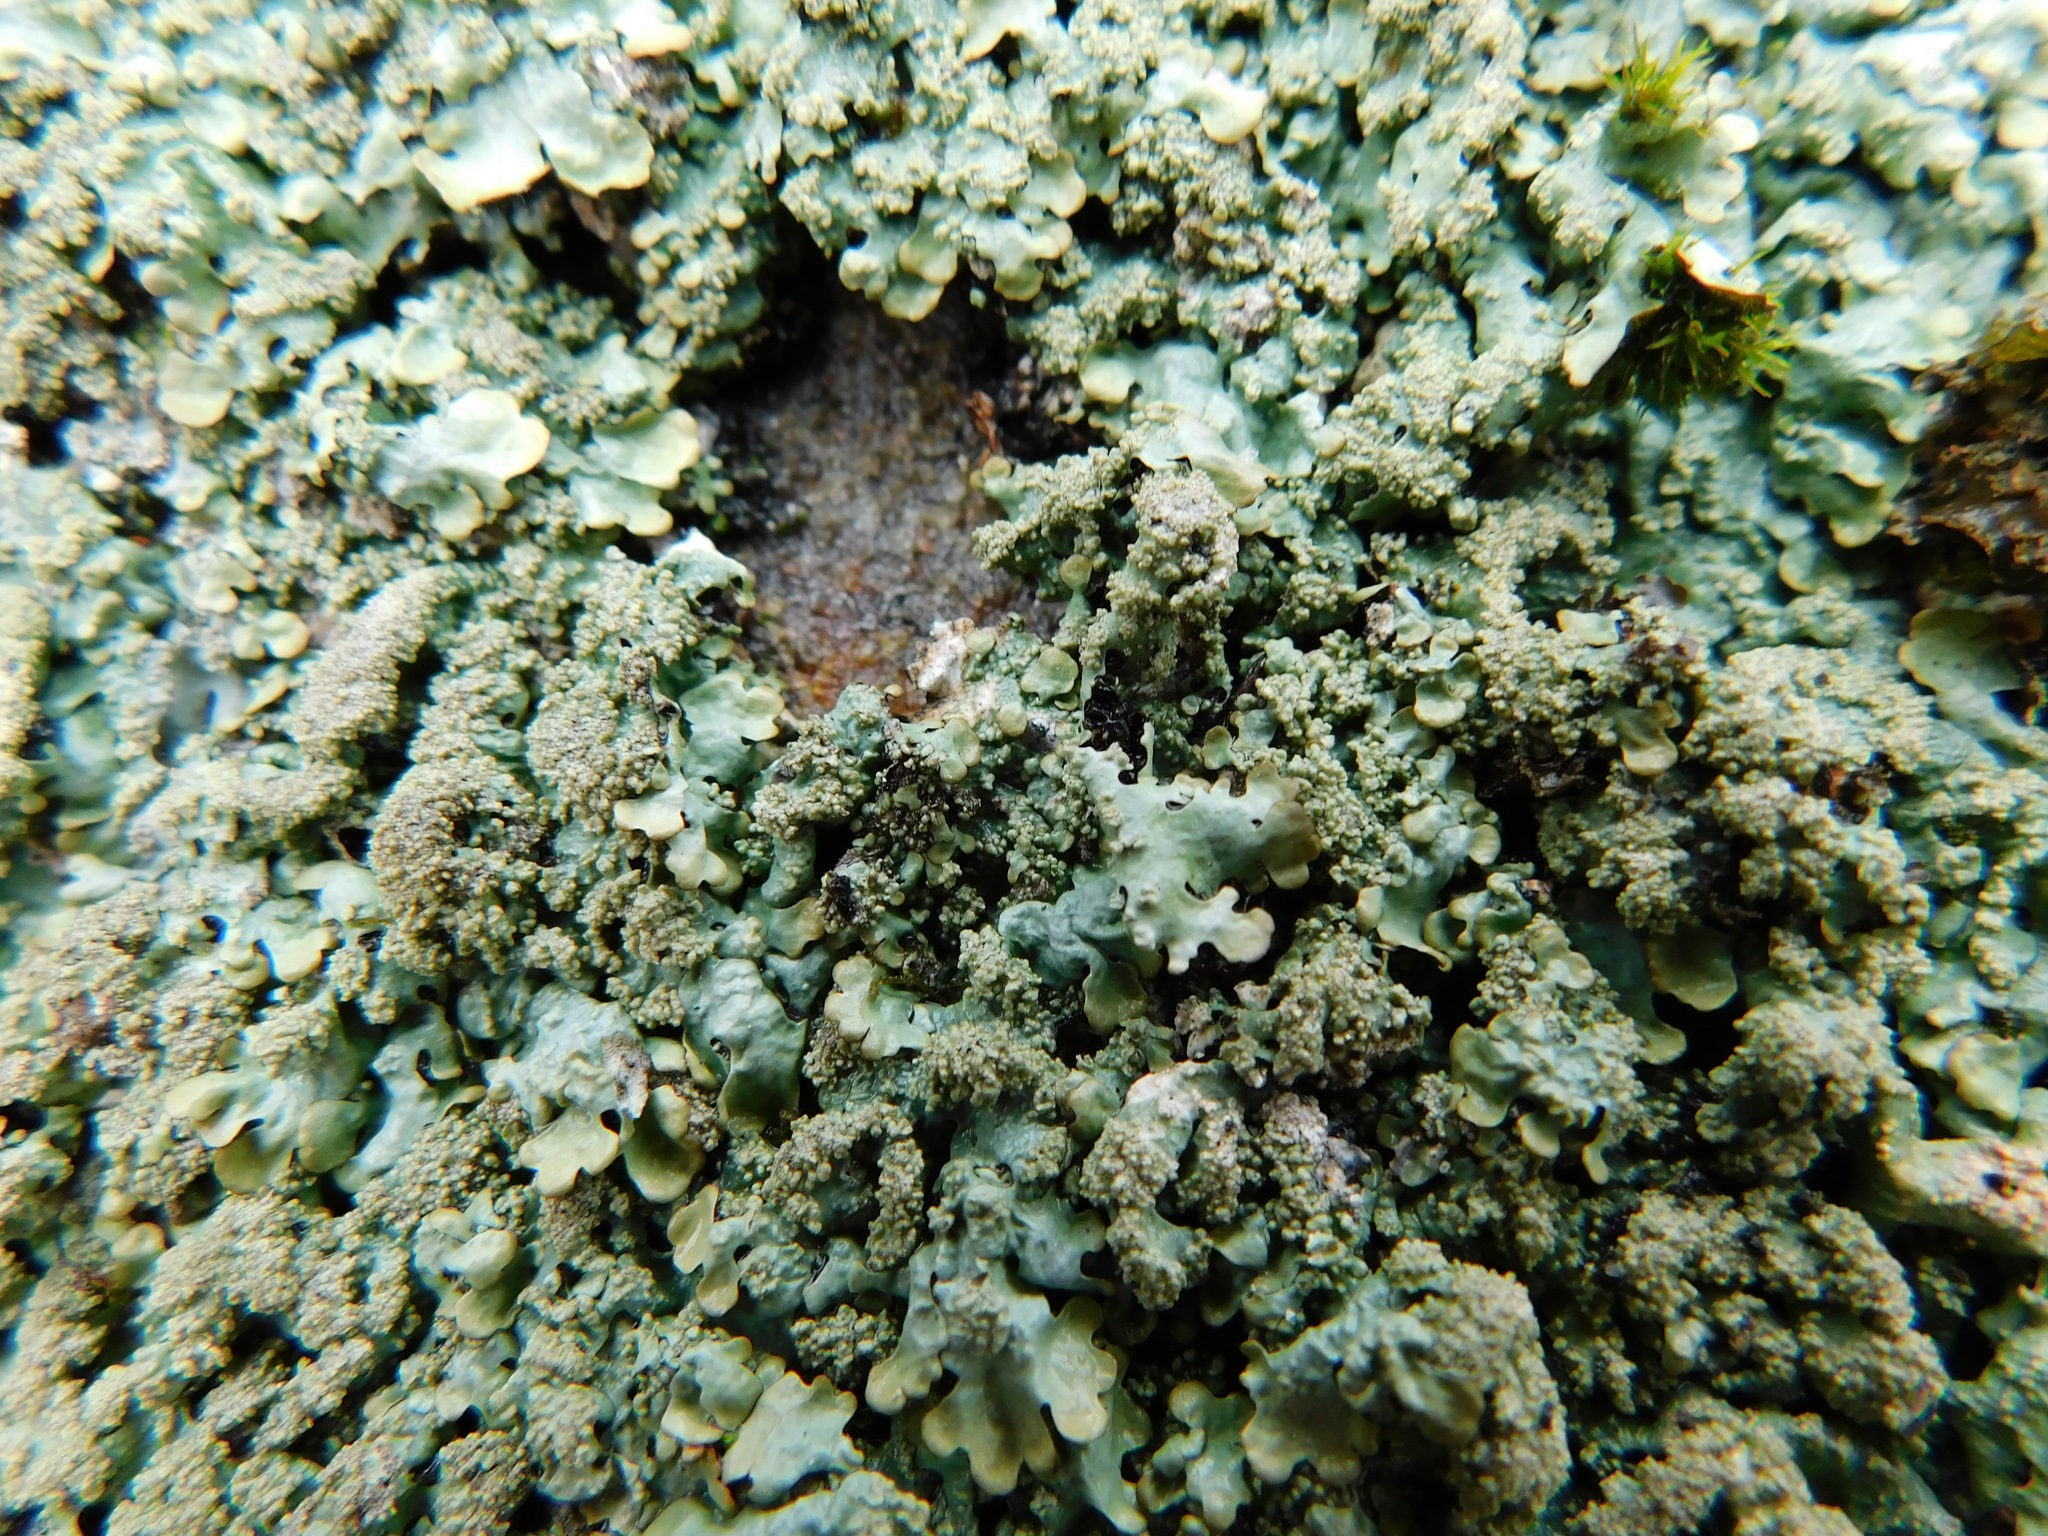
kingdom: Fungi
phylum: Ascomycota
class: Lecanoromycetes
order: Lecanorales
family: Parmeliaceae
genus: Flavoparmelia
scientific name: Flavoparmelia baltimorensis
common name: Rock greenshield
